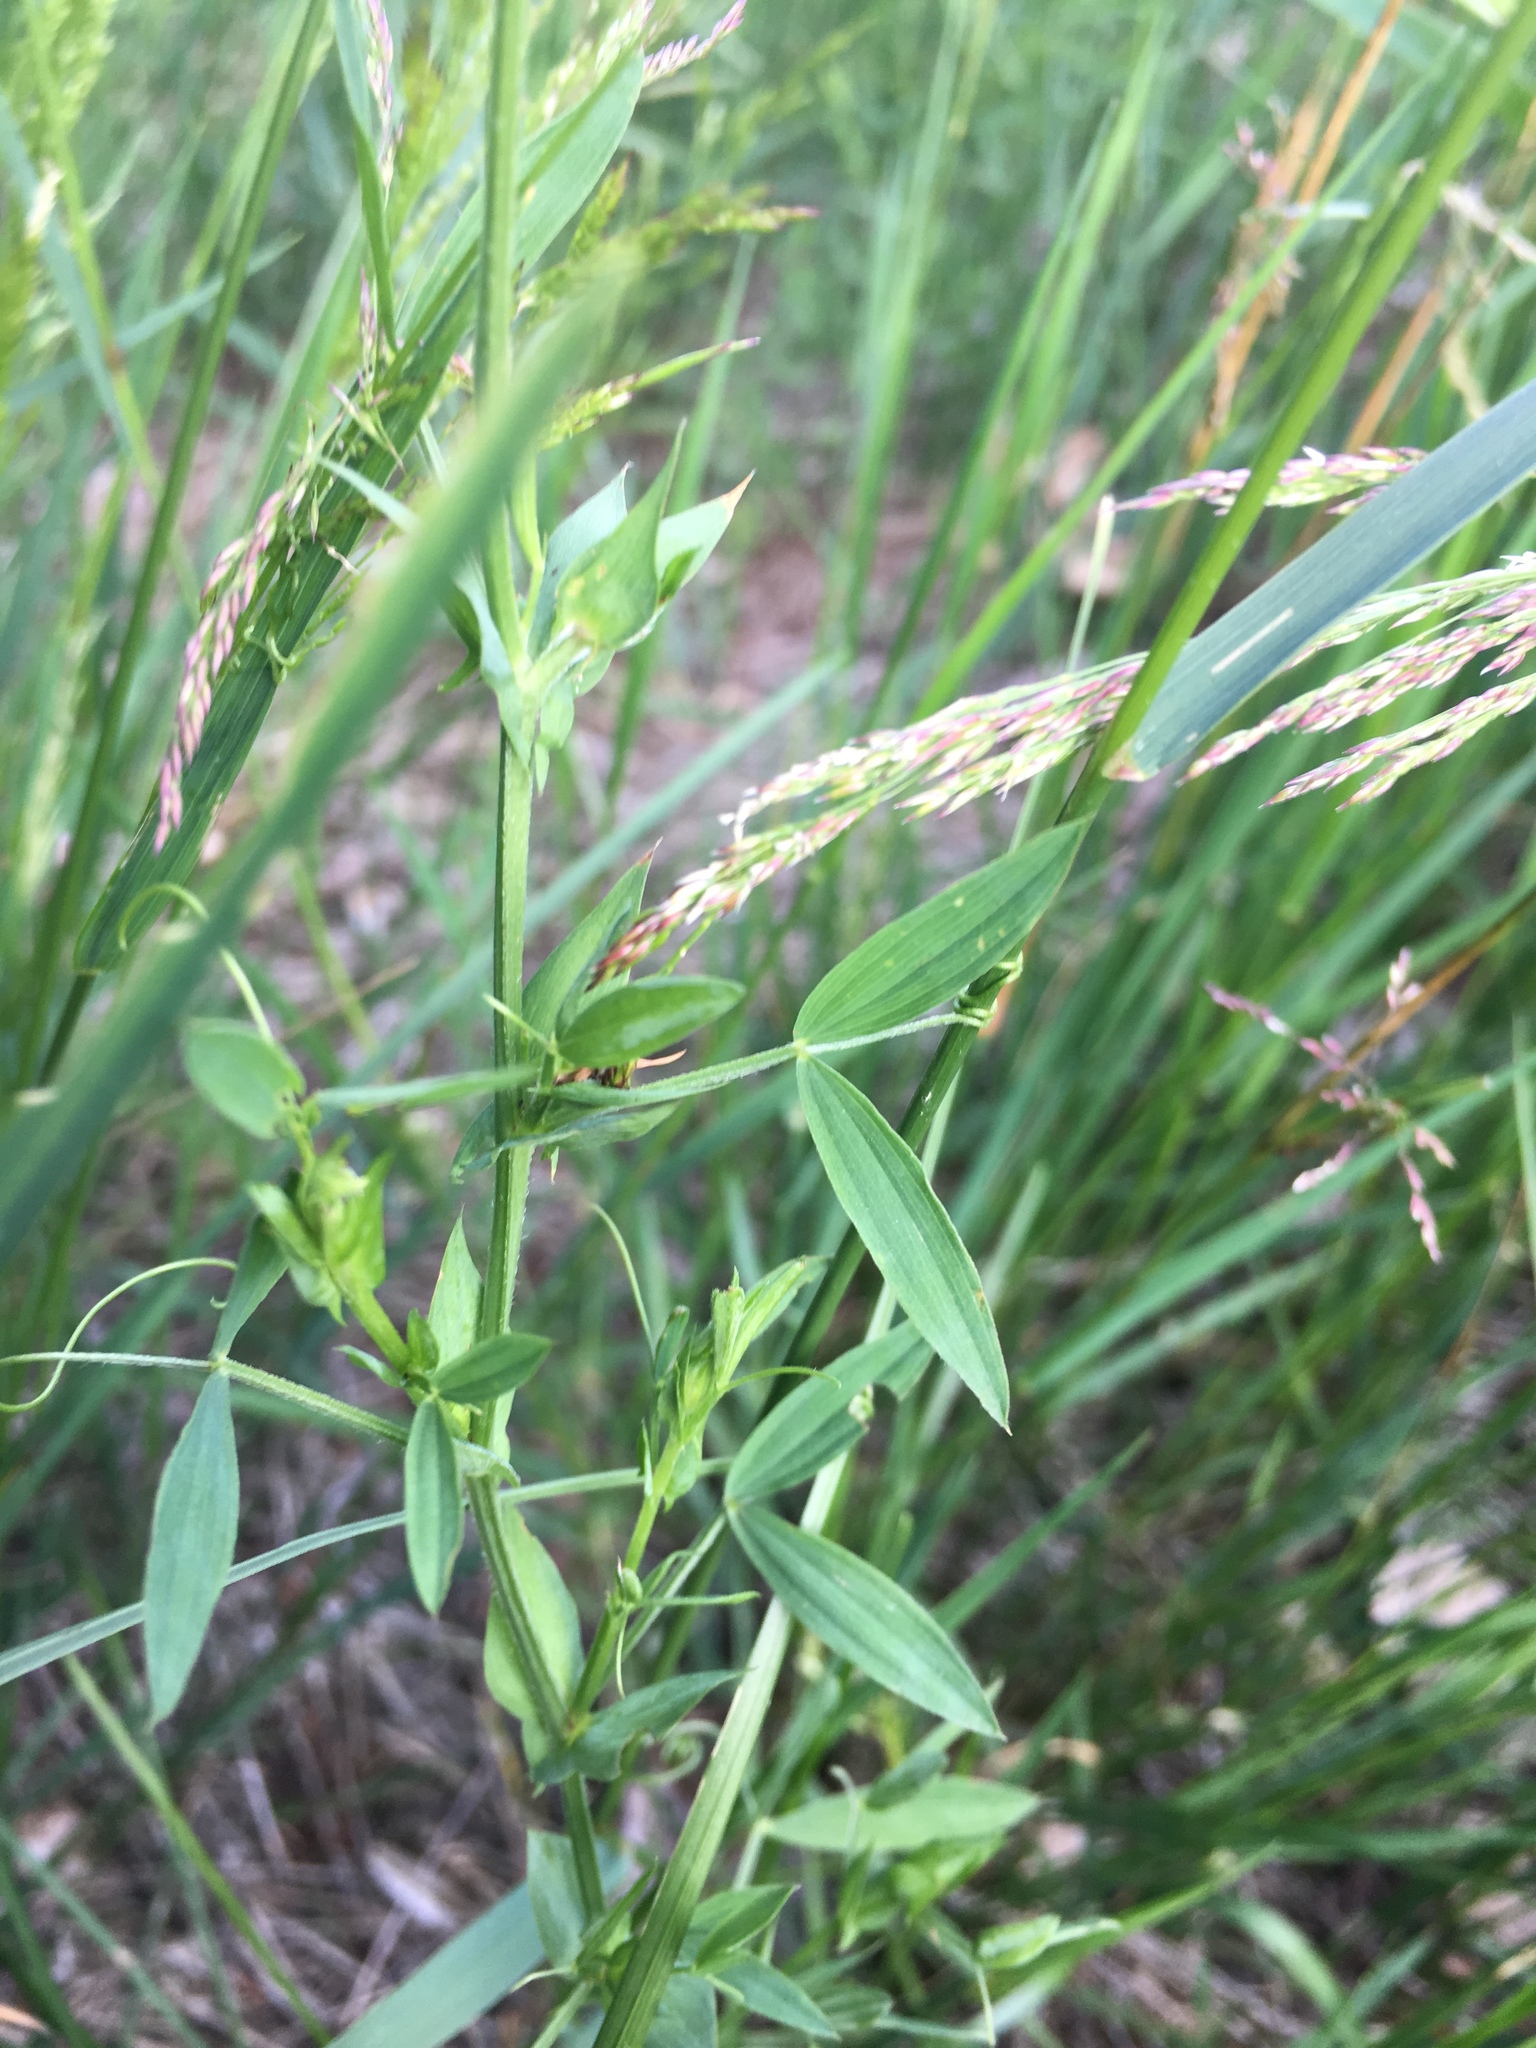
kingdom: Plantae
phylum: Tracheophyta
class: Magnoliopsida
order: Fabales
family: Fabaceae
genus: Lathyrus
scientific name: Lathyrus pratensis
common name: Meadow vetchling
